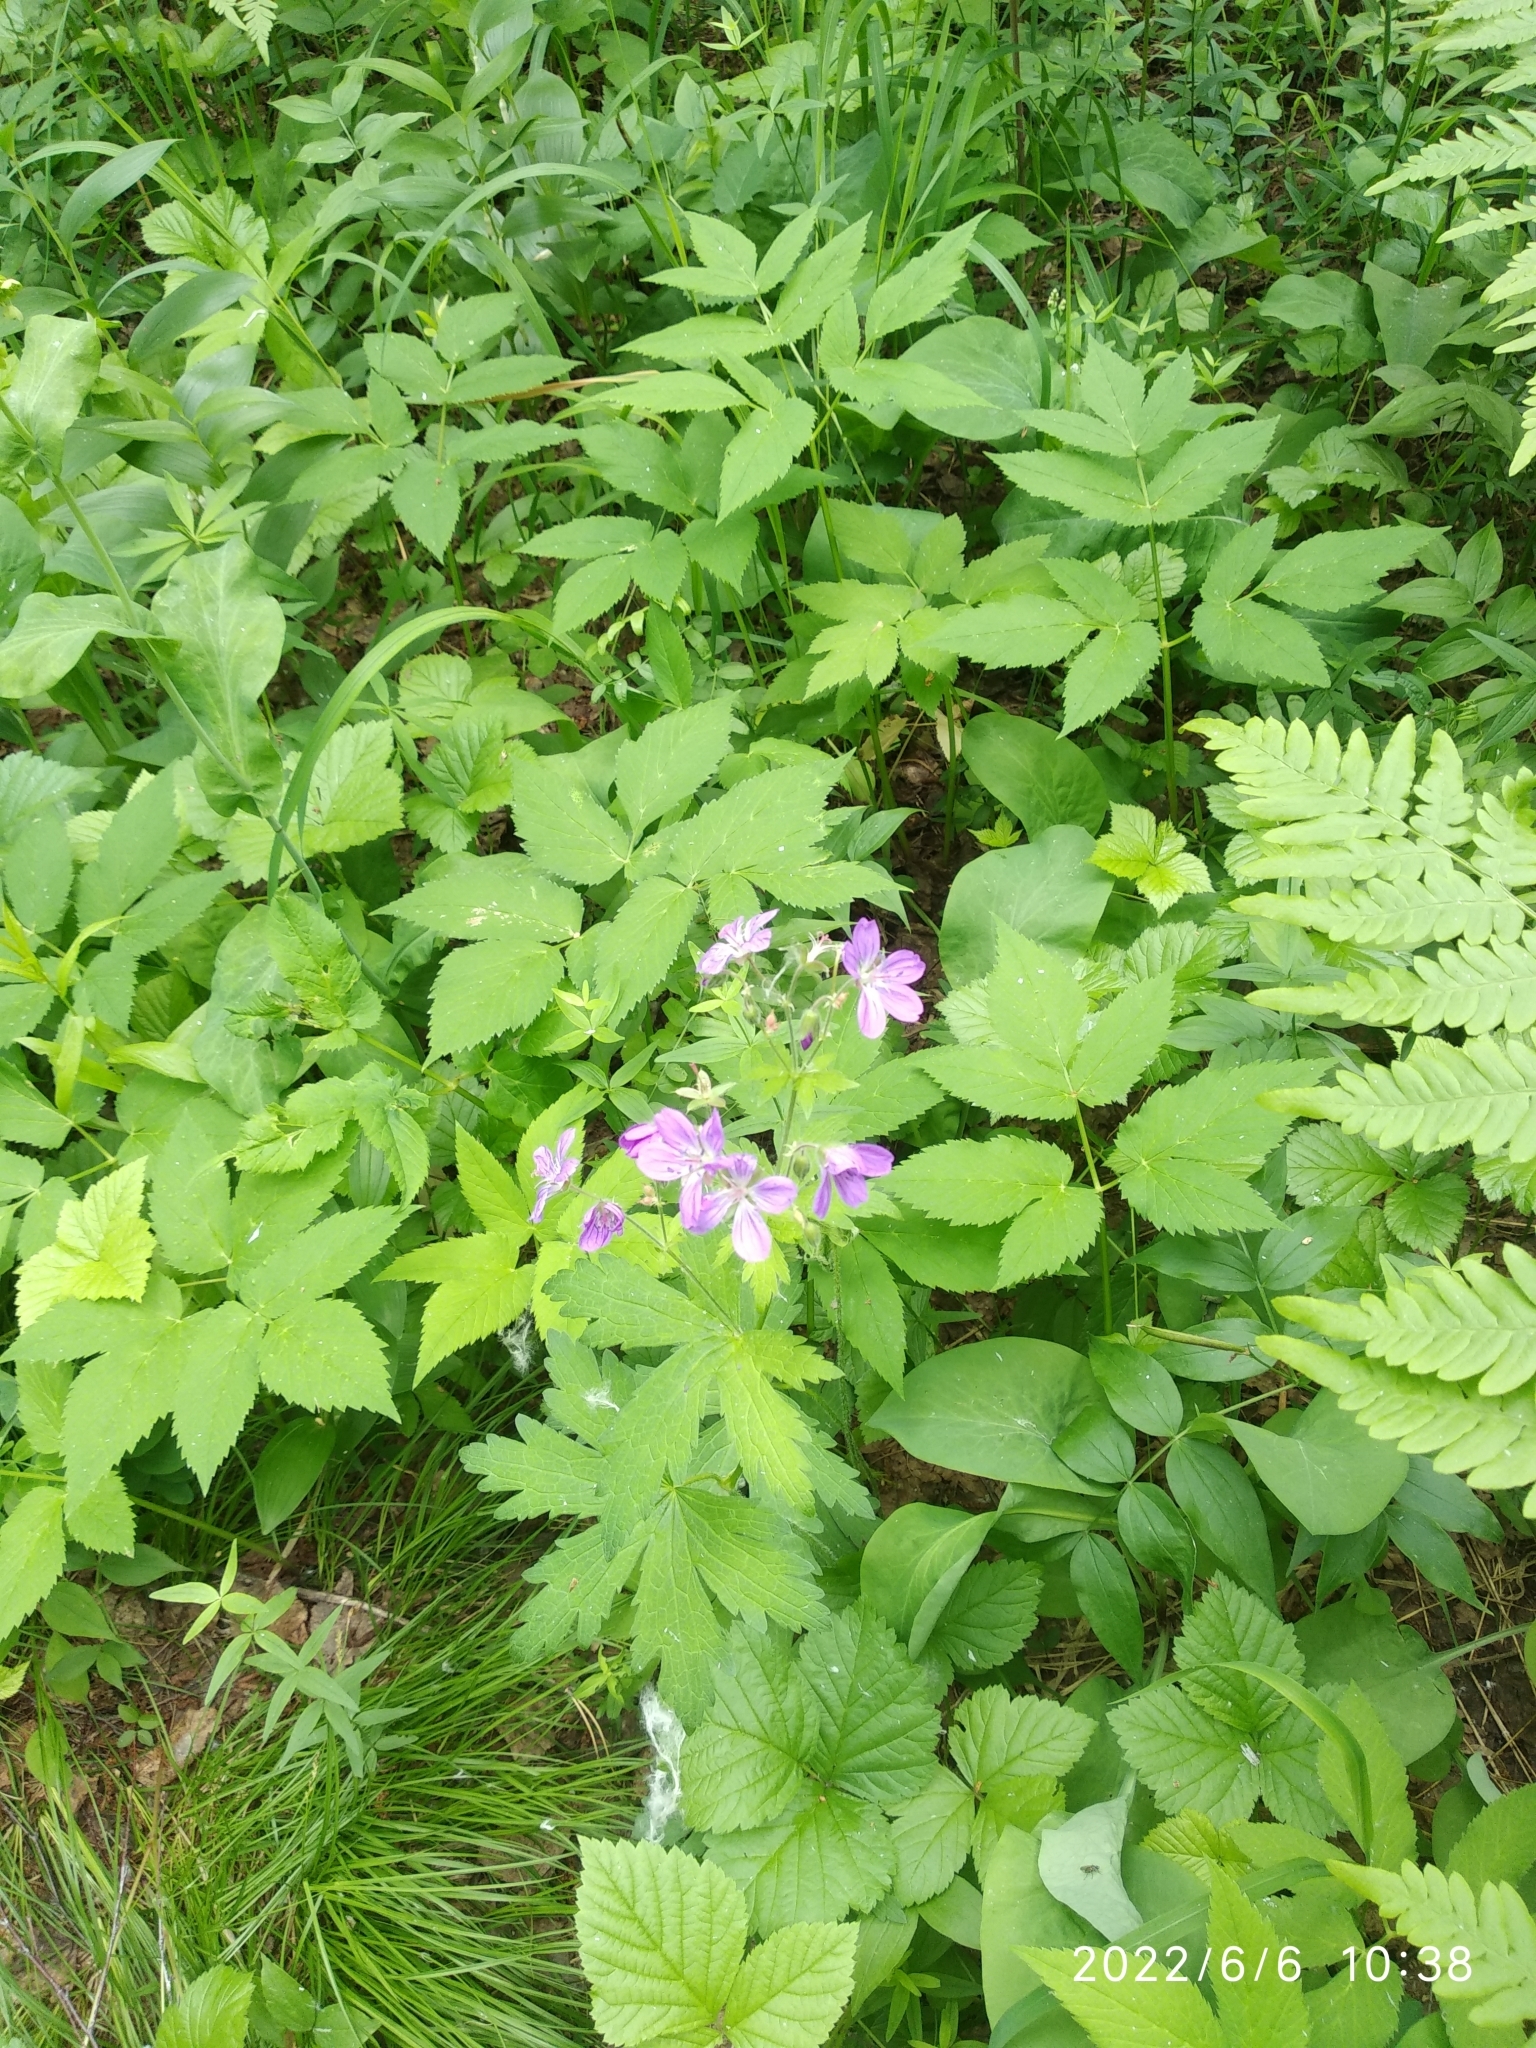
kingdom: Plantae
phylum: Tracheophyta
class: Magnoliopsida
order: Geraniales
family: Geraniaceae
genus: Geranium
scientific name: Geranium sylvaticum
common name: Wood crane's-bill
